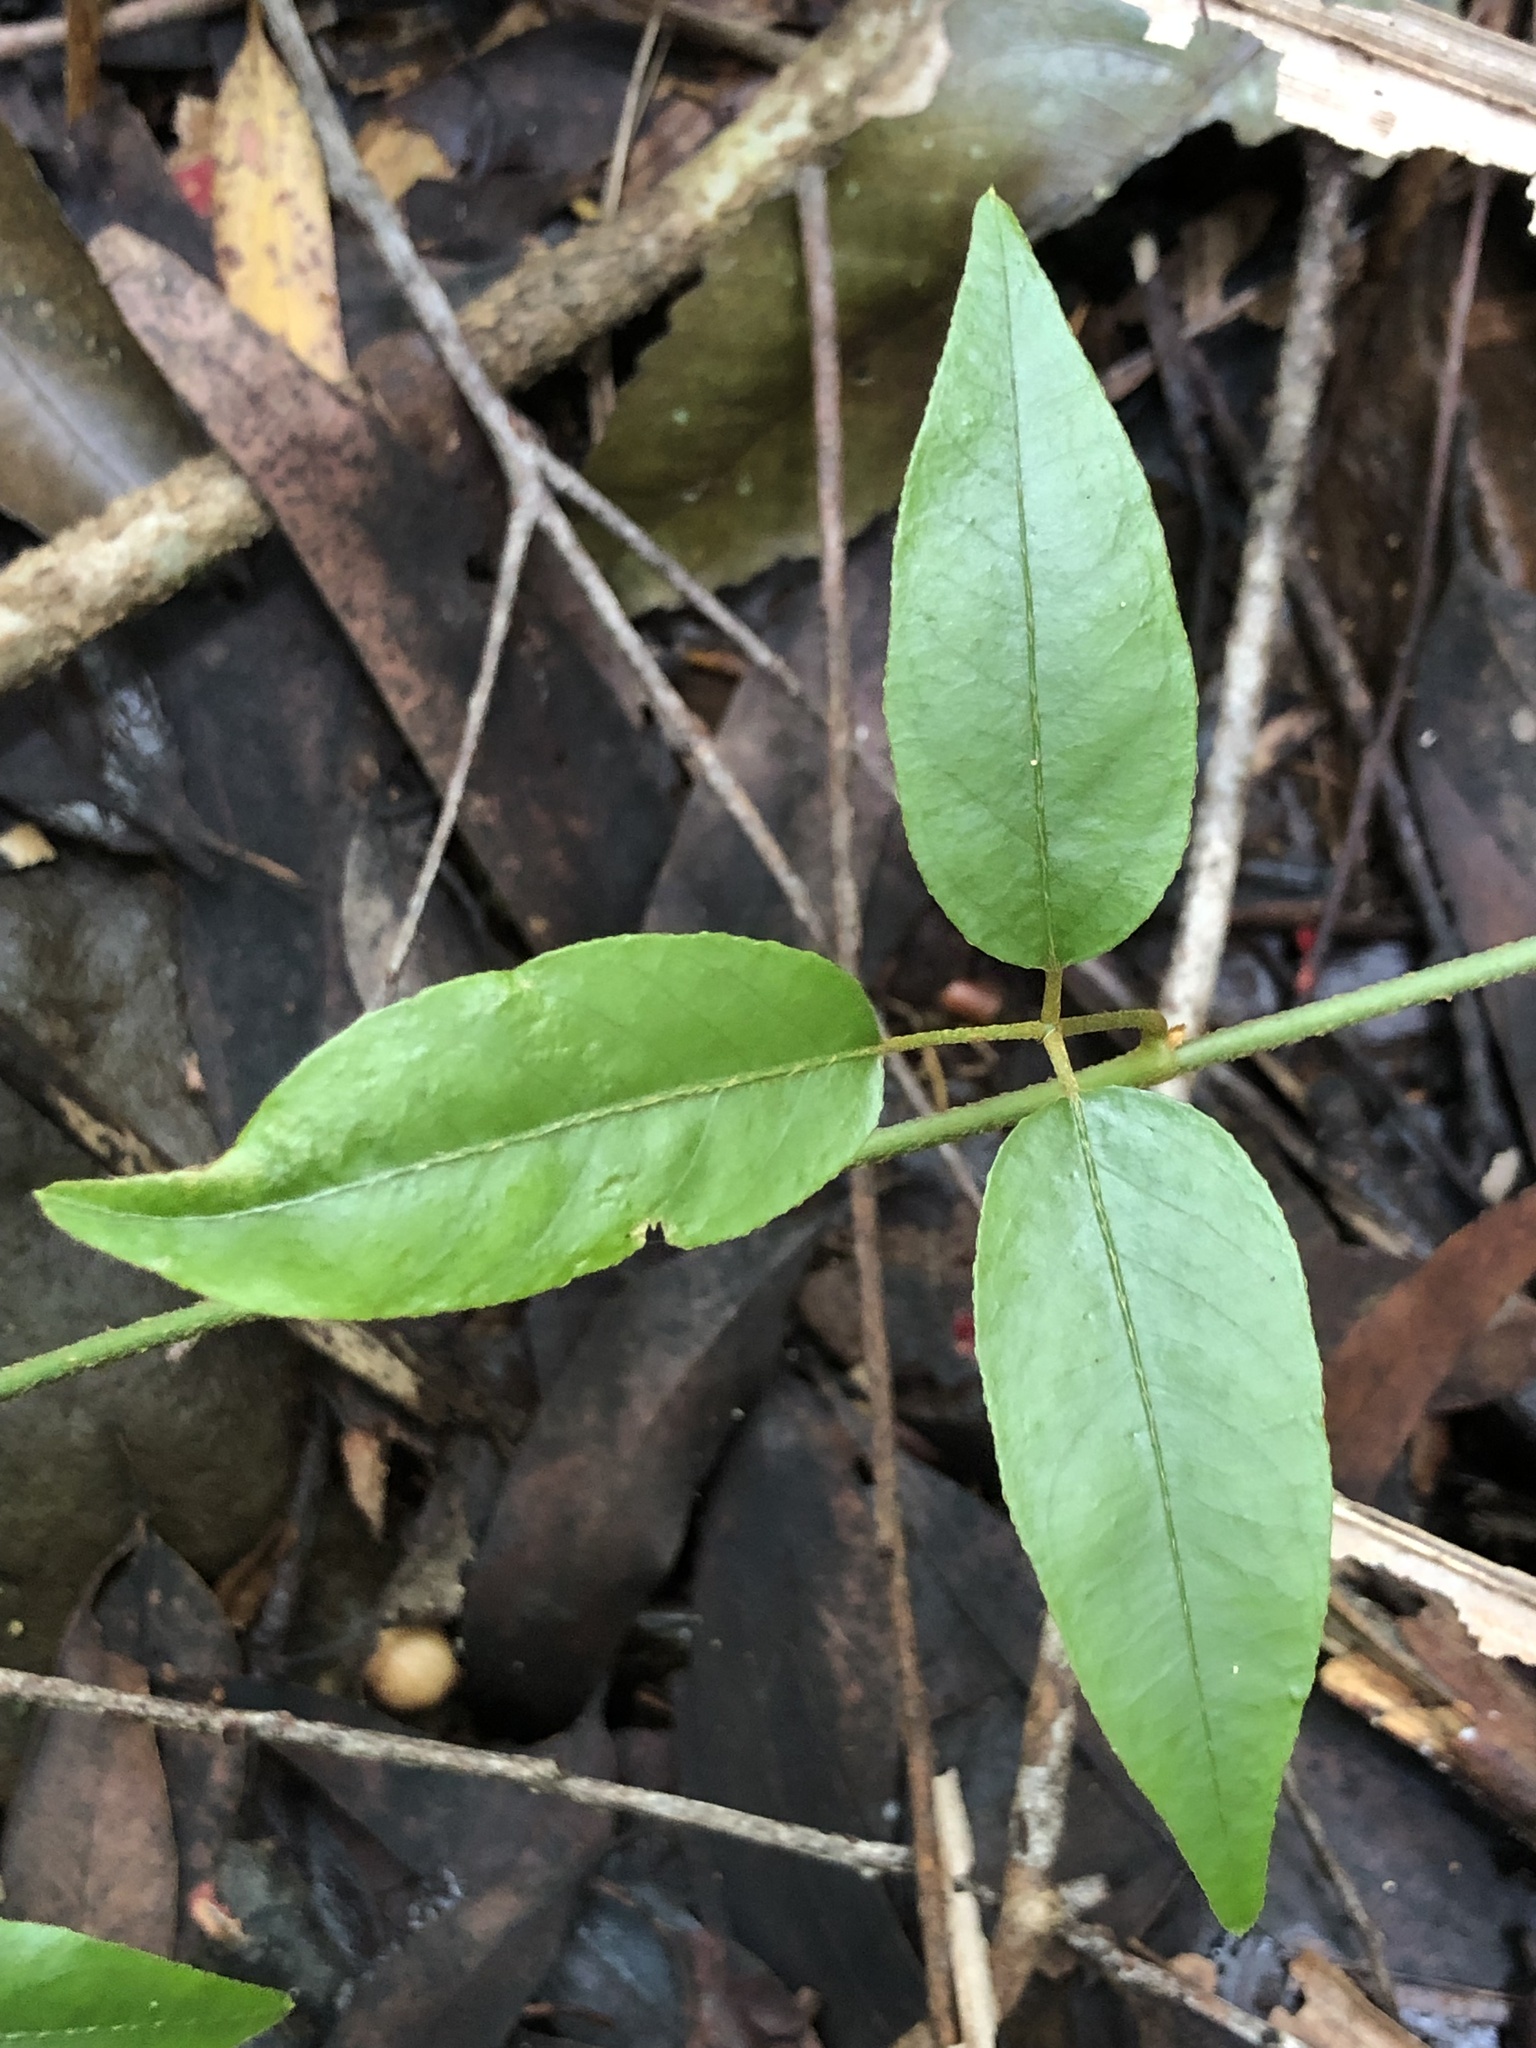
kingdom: Plantae
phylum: Tracheophyta
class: Magnoliopsida
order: Apiales
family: Araliaceae
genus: Cephalaralia
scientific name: Cephalaralia cephalobotrys
